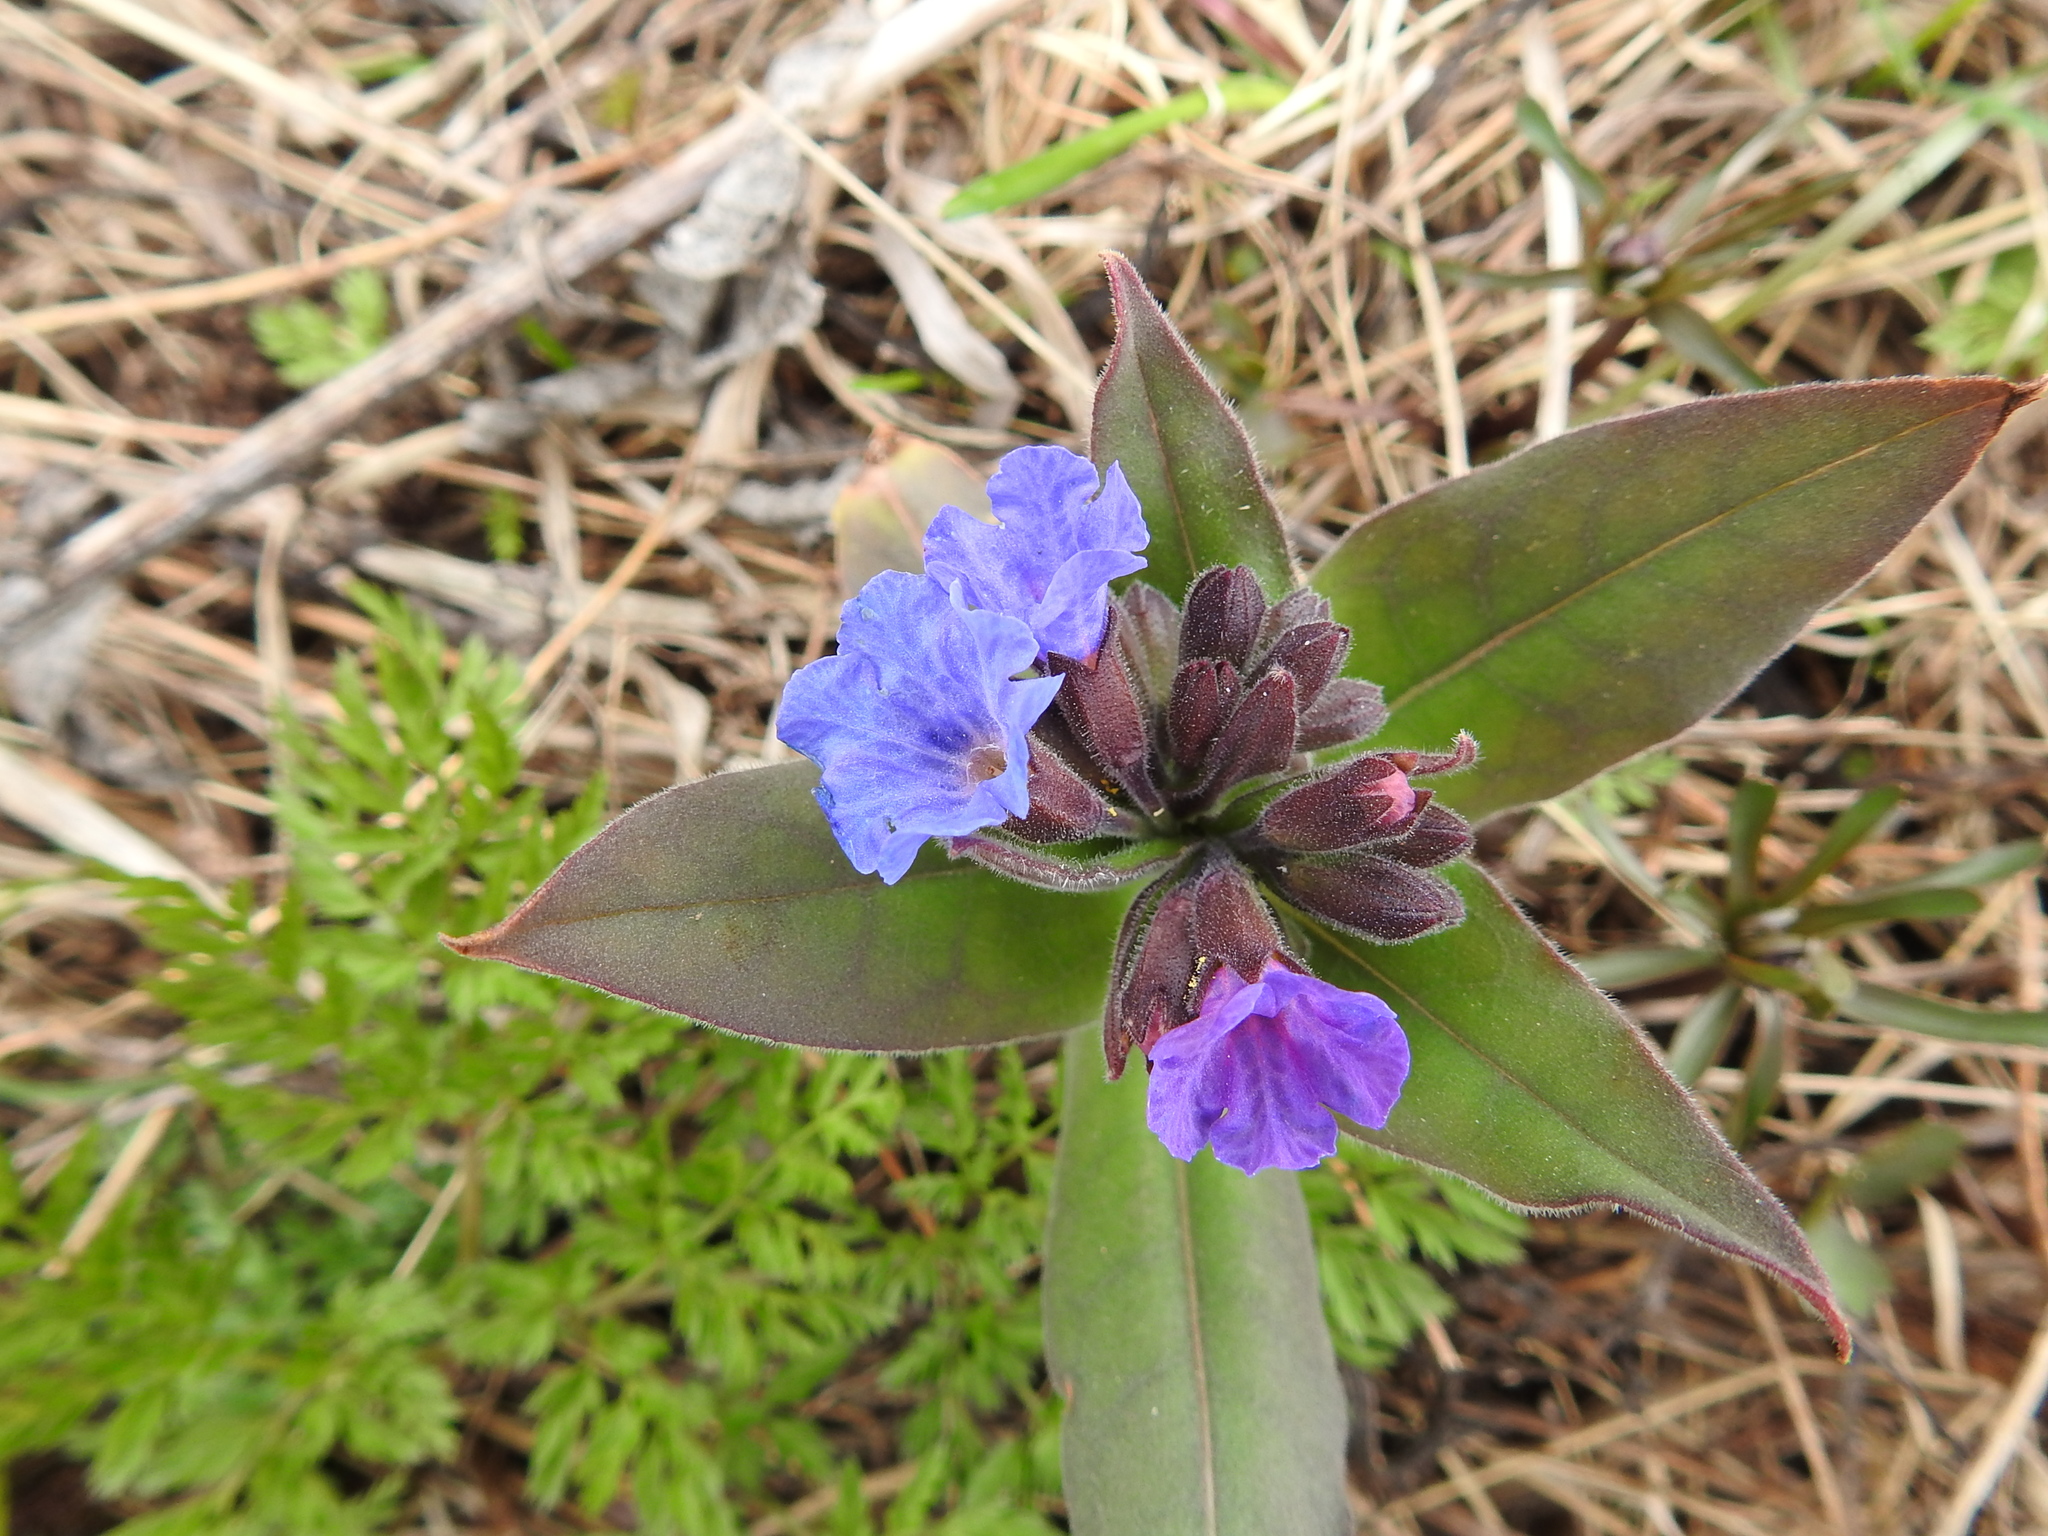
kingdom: Plantae
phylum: Tracheophyta
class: Magnoliopsida
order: Boraginales
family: Boraginaceae
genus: Pulmonaria
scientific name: Pulmonaria mollis
